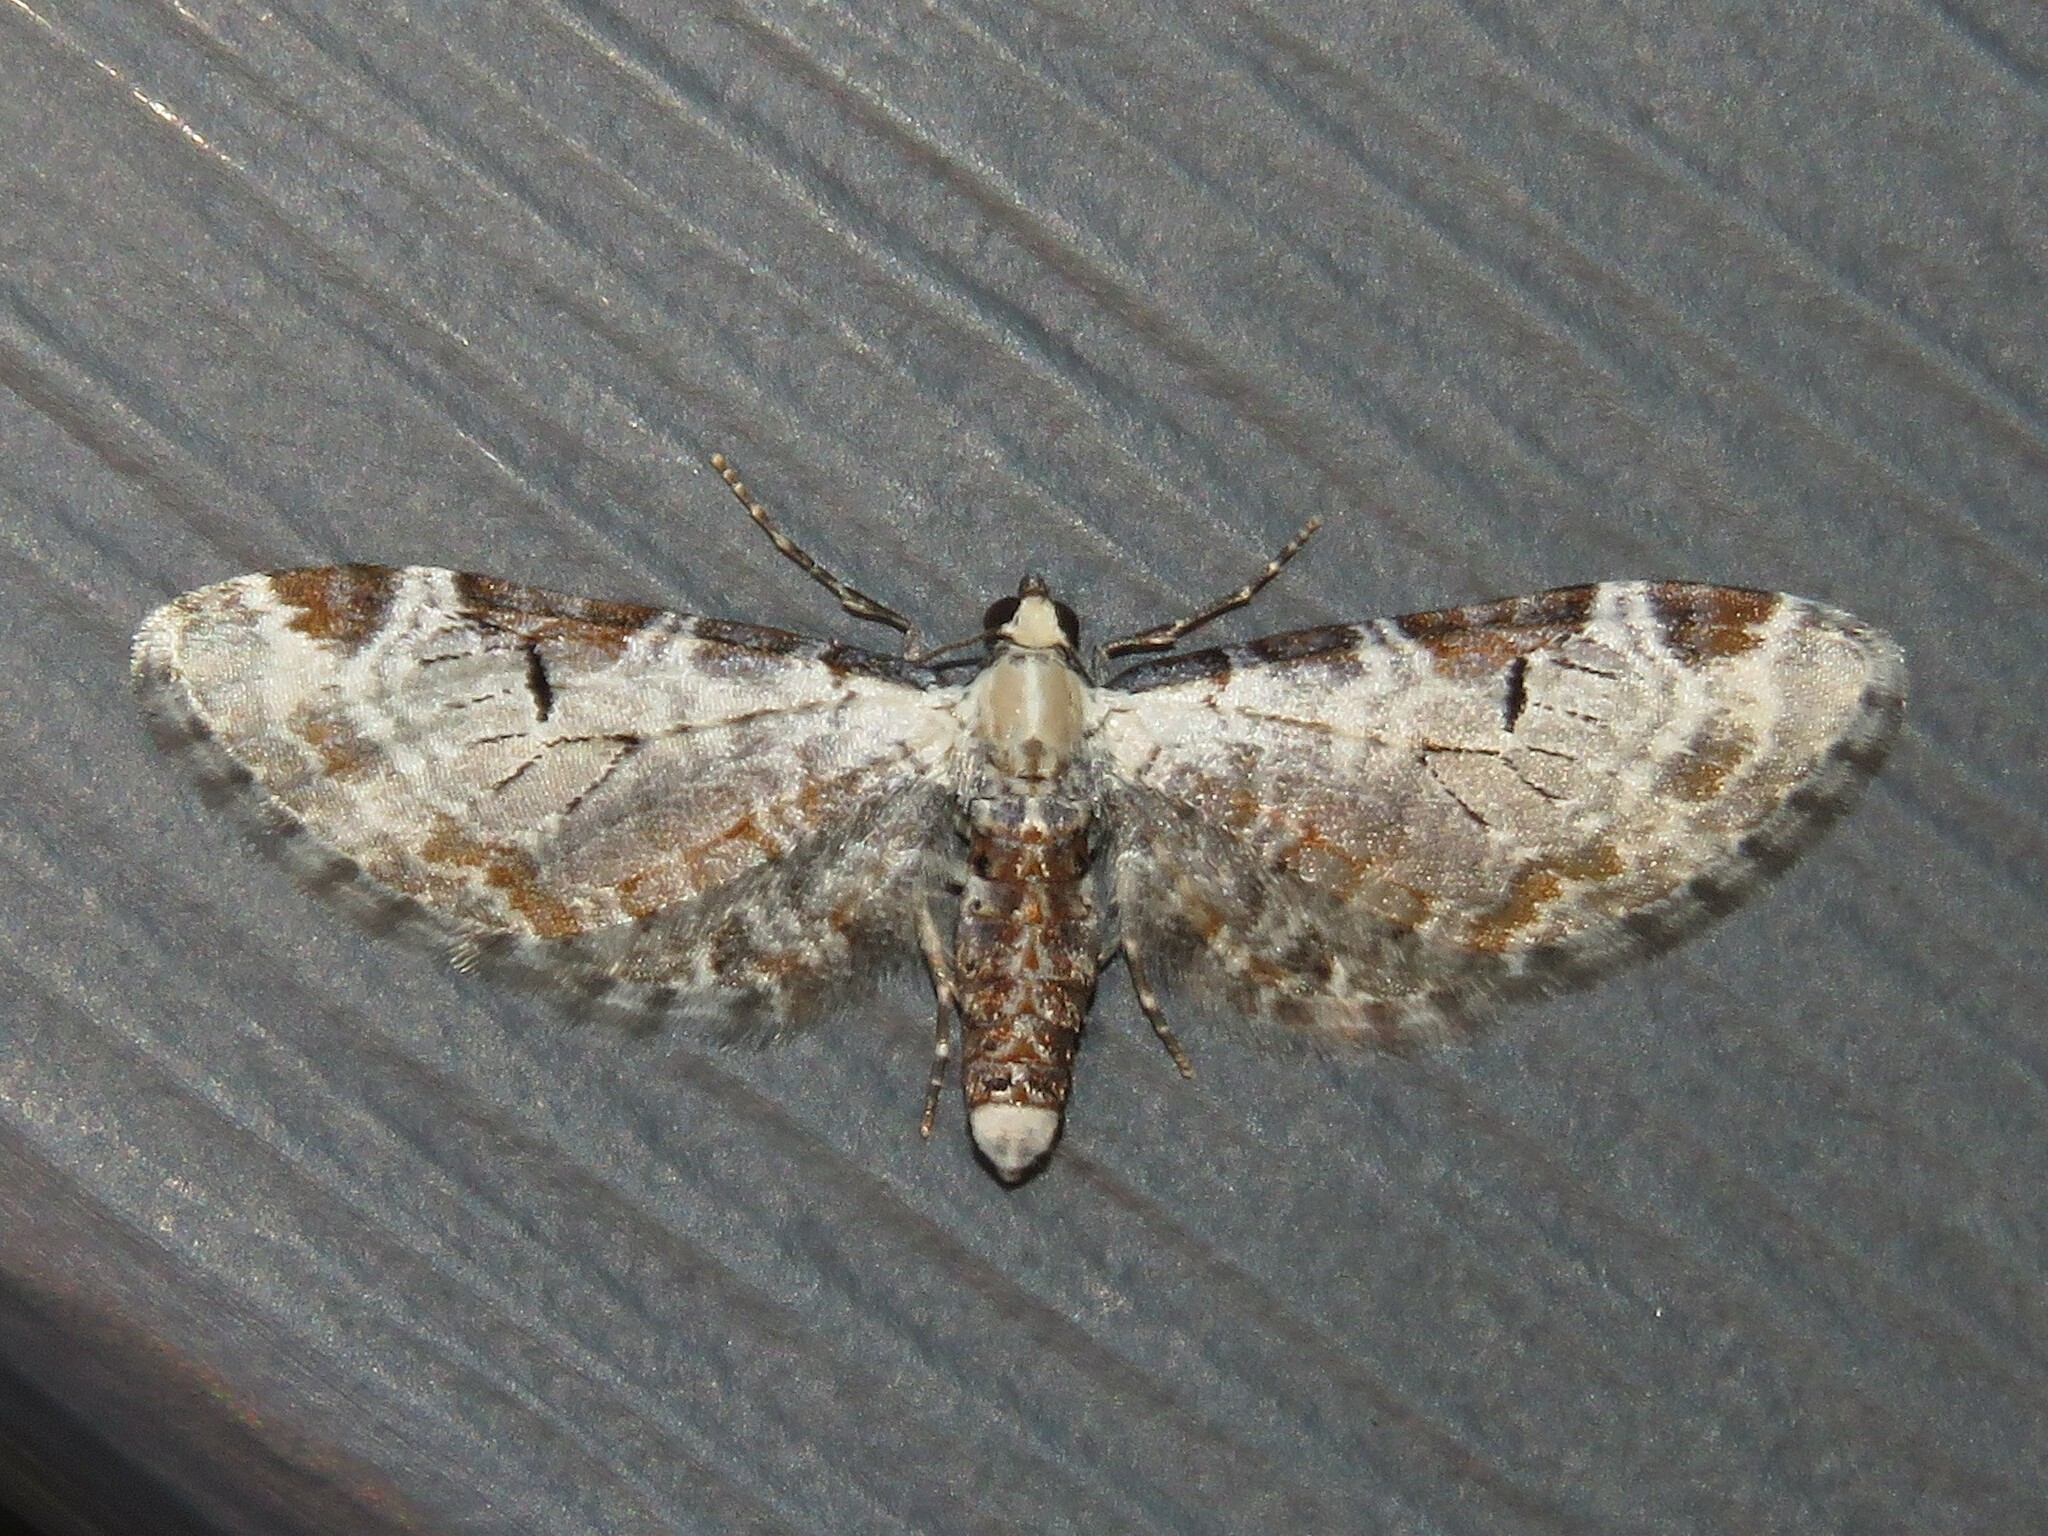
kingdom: Animalia
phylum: Arthropoda
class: Insecta
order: Lepidoptera
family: Geometridae
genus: Eupithecia
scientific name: Eupithecia ravocostaliata
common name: Great varigated pug
